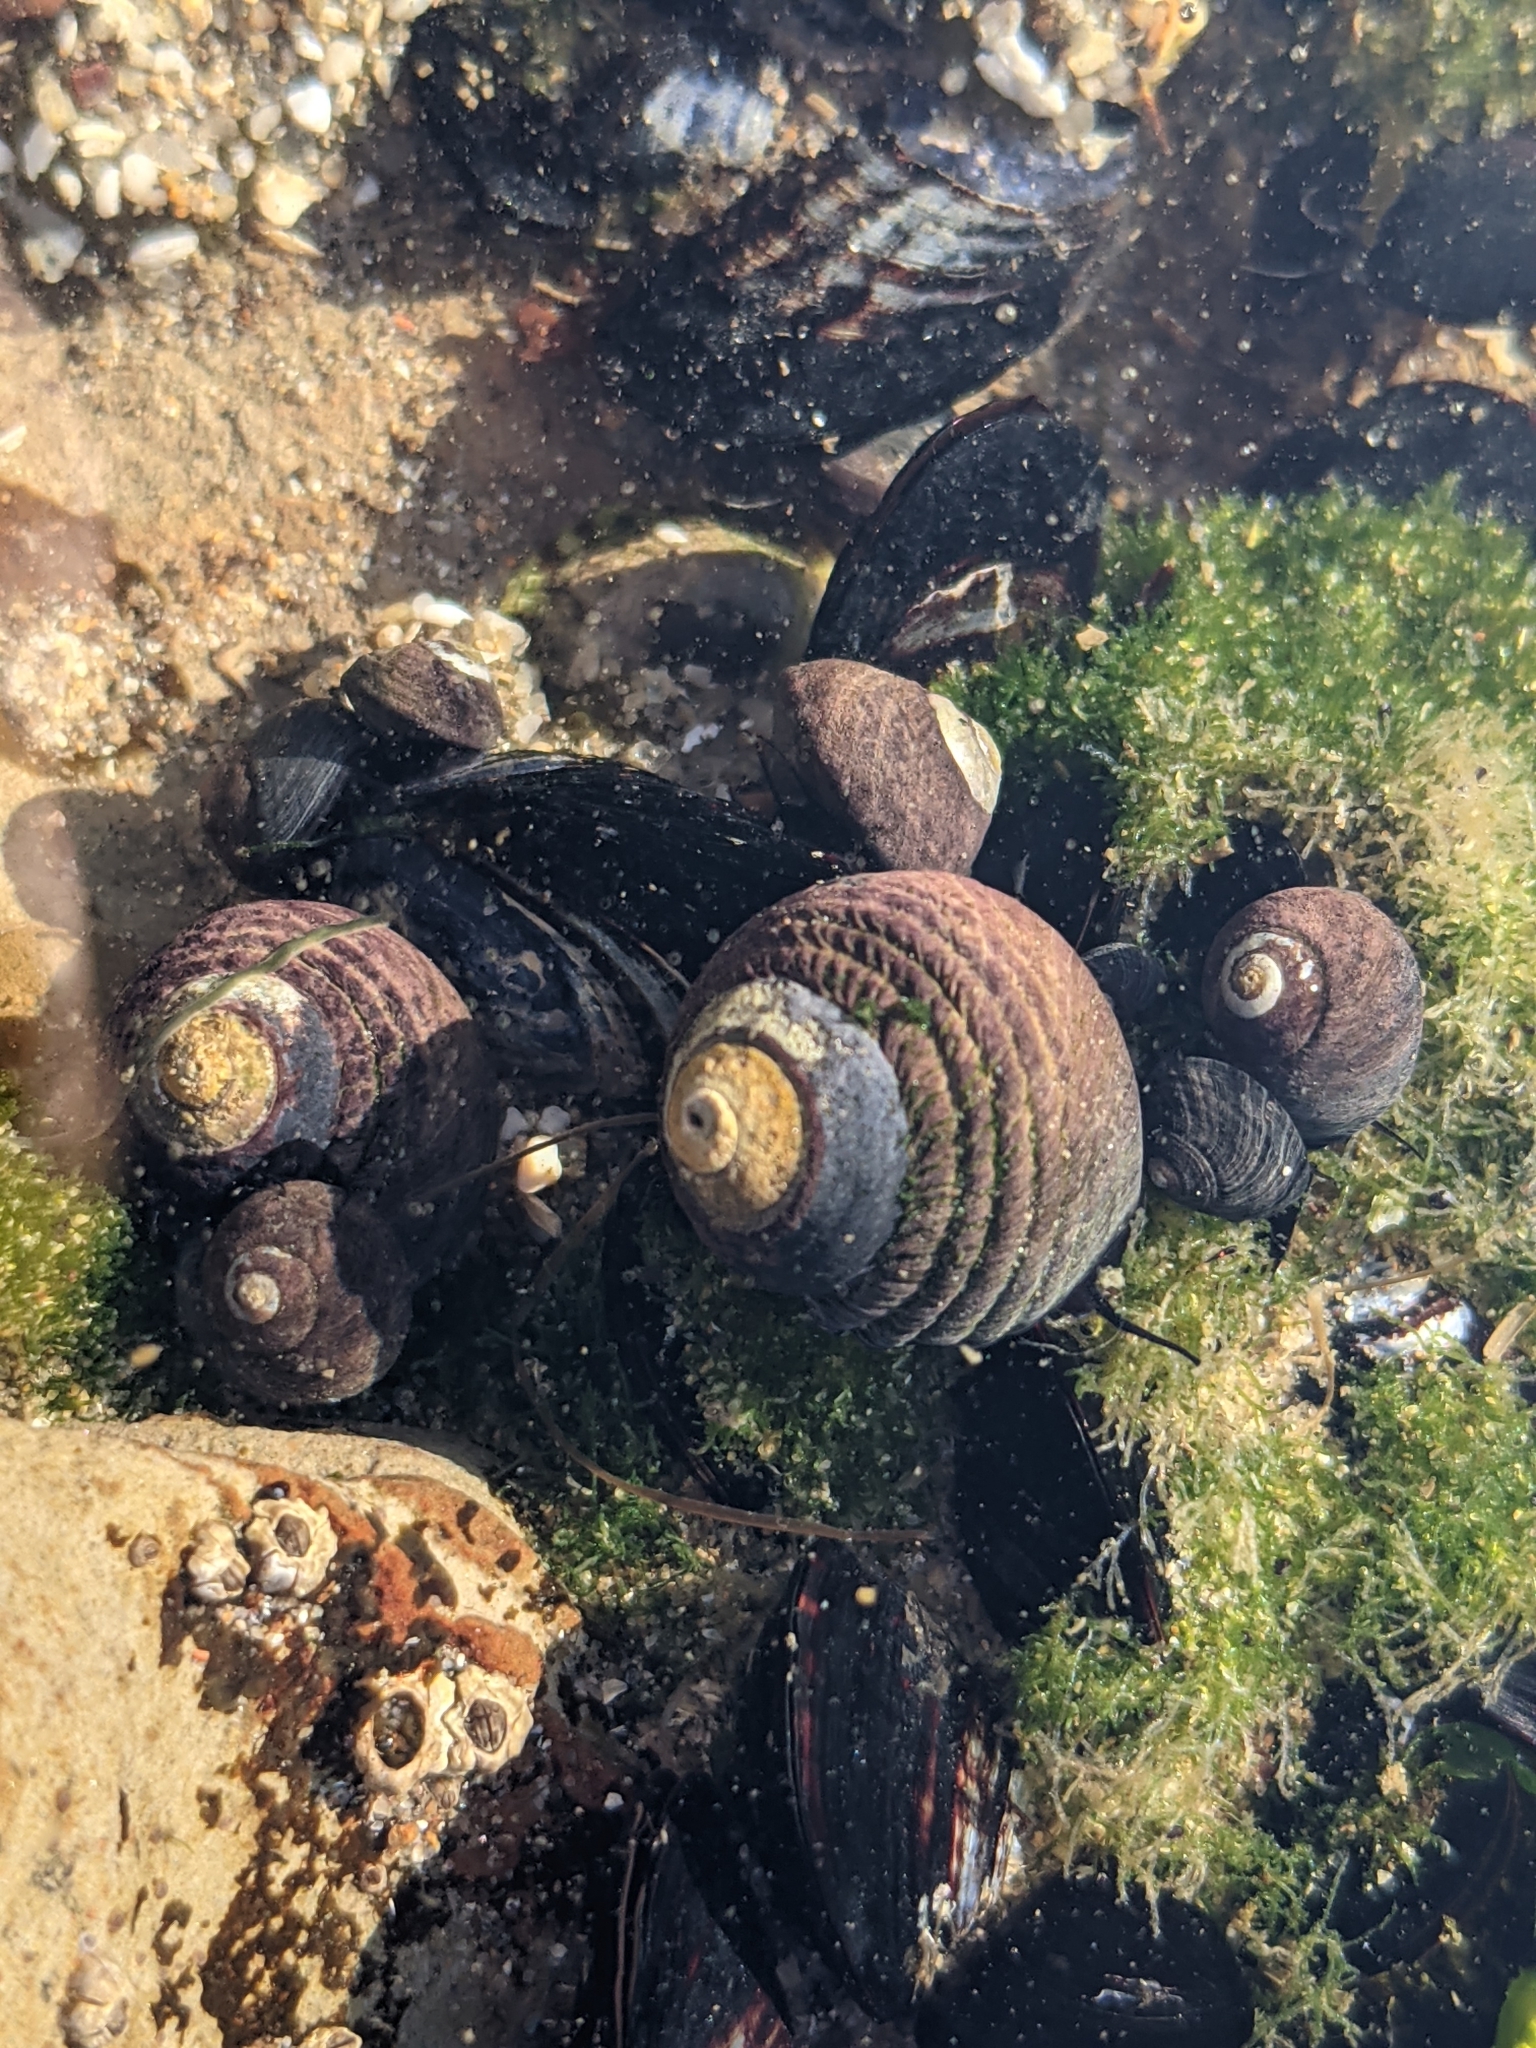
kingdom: Animalia
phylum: Mollusca
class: Gastropoda
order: Trochida
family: Tegulidae
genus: Tegula
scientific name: Tegula funebralis
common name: Black tegula
